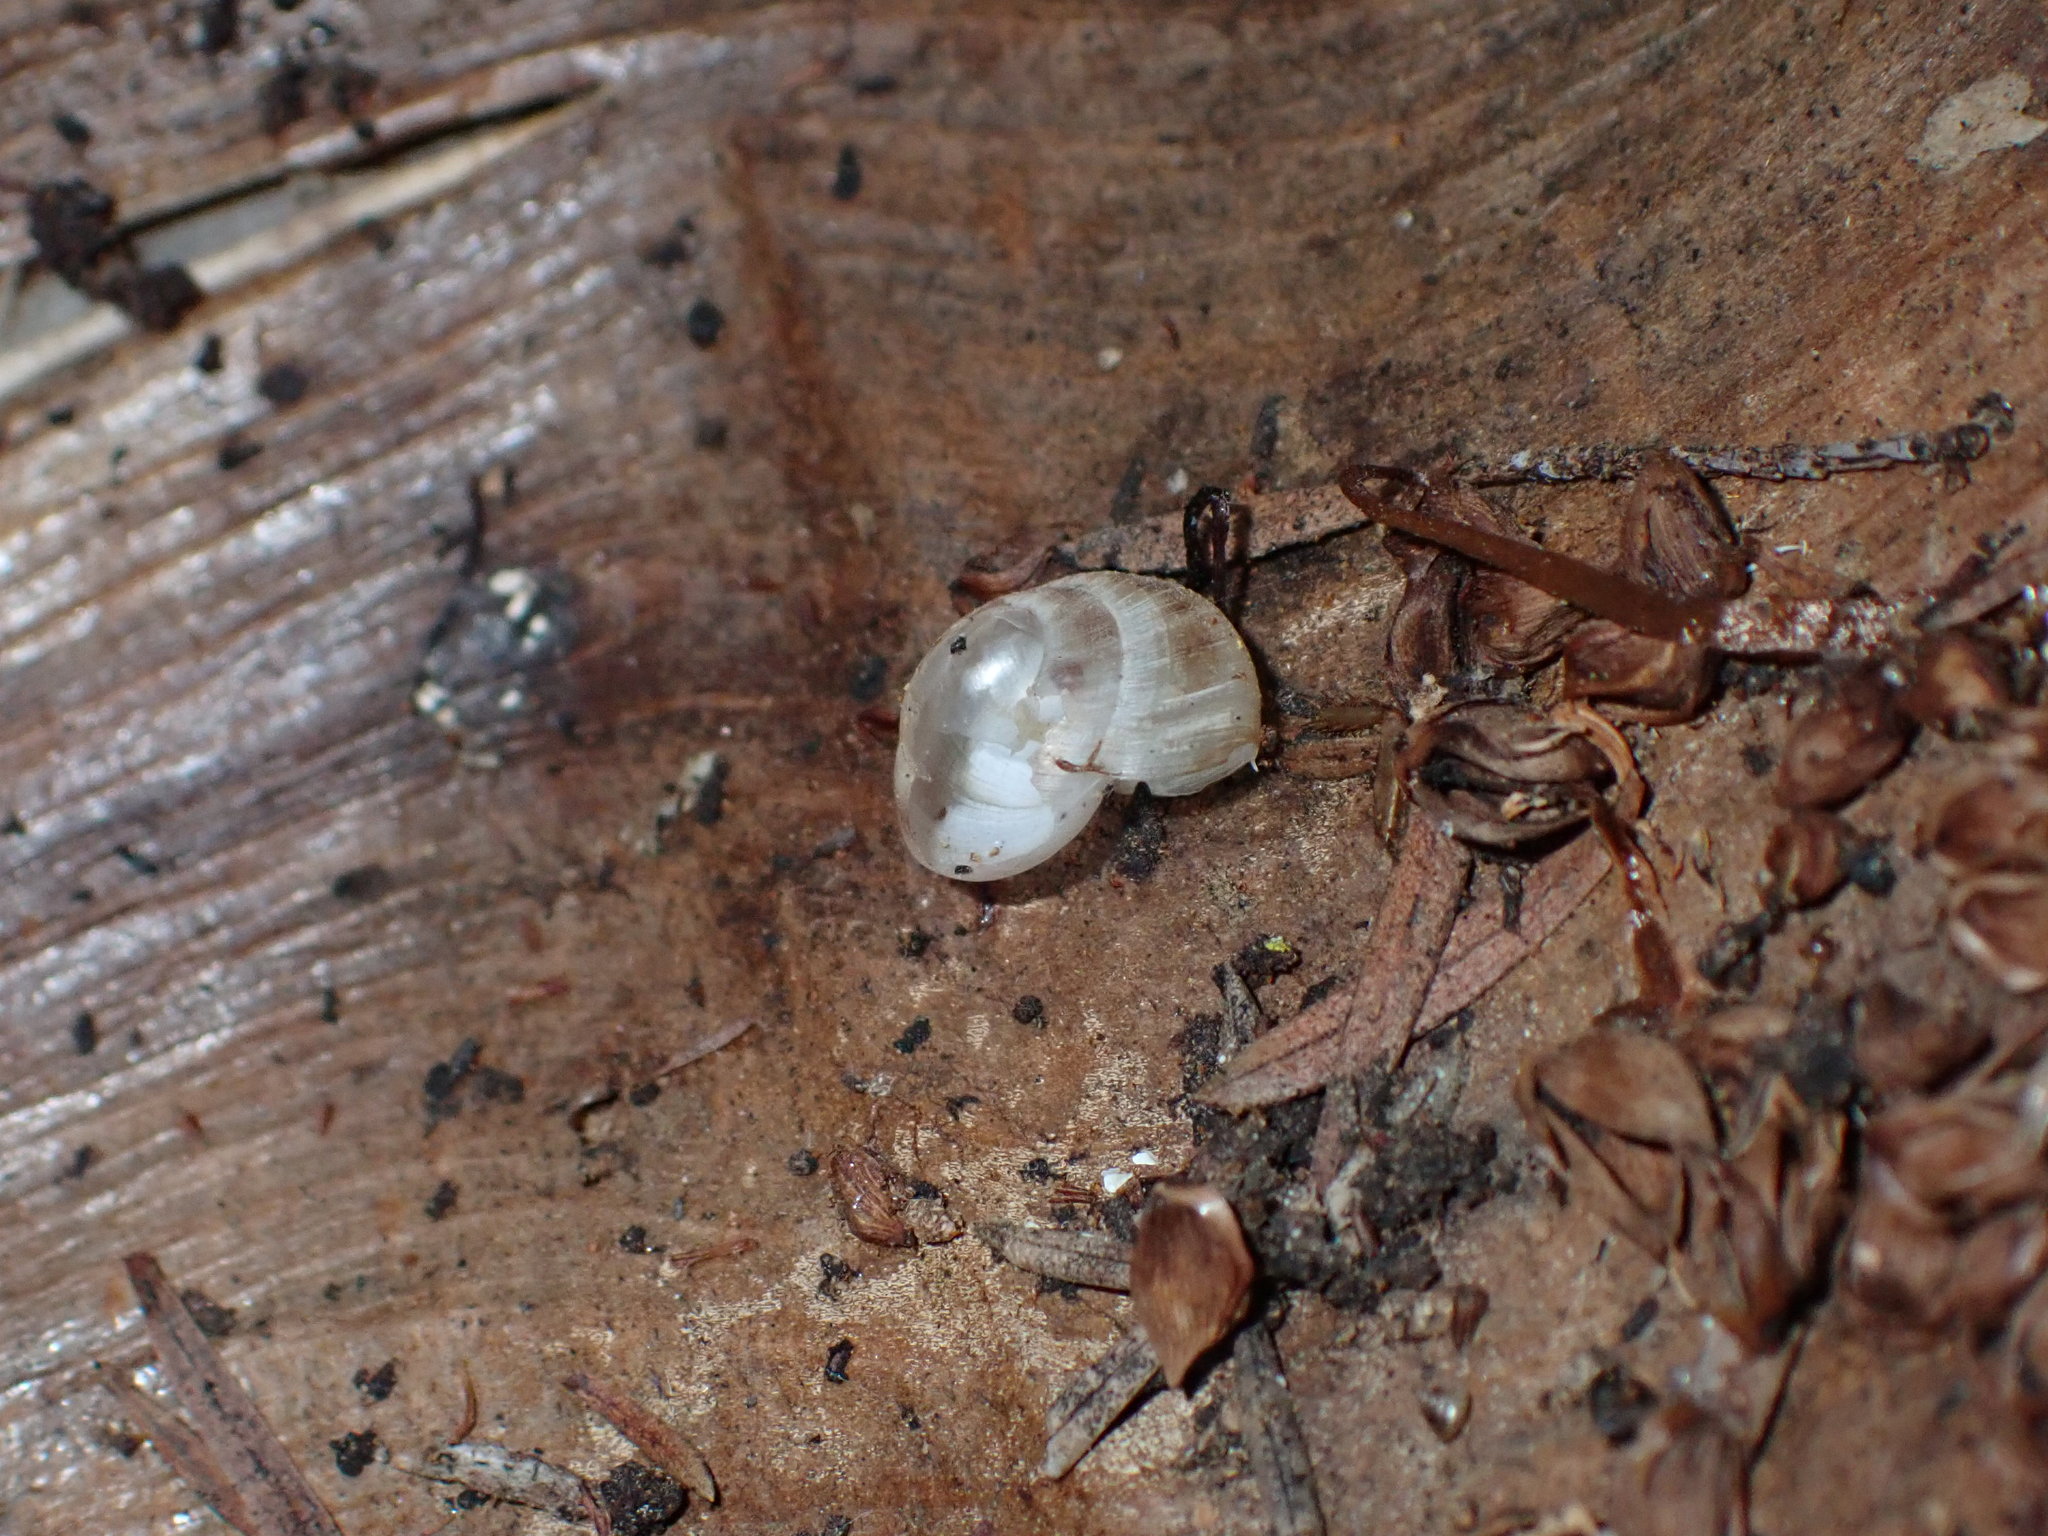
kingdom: Animalia
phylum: Mollusca
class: Gastropoda
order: Stylommatophora
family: Charopidae
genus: Serpho
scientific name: Serpho
